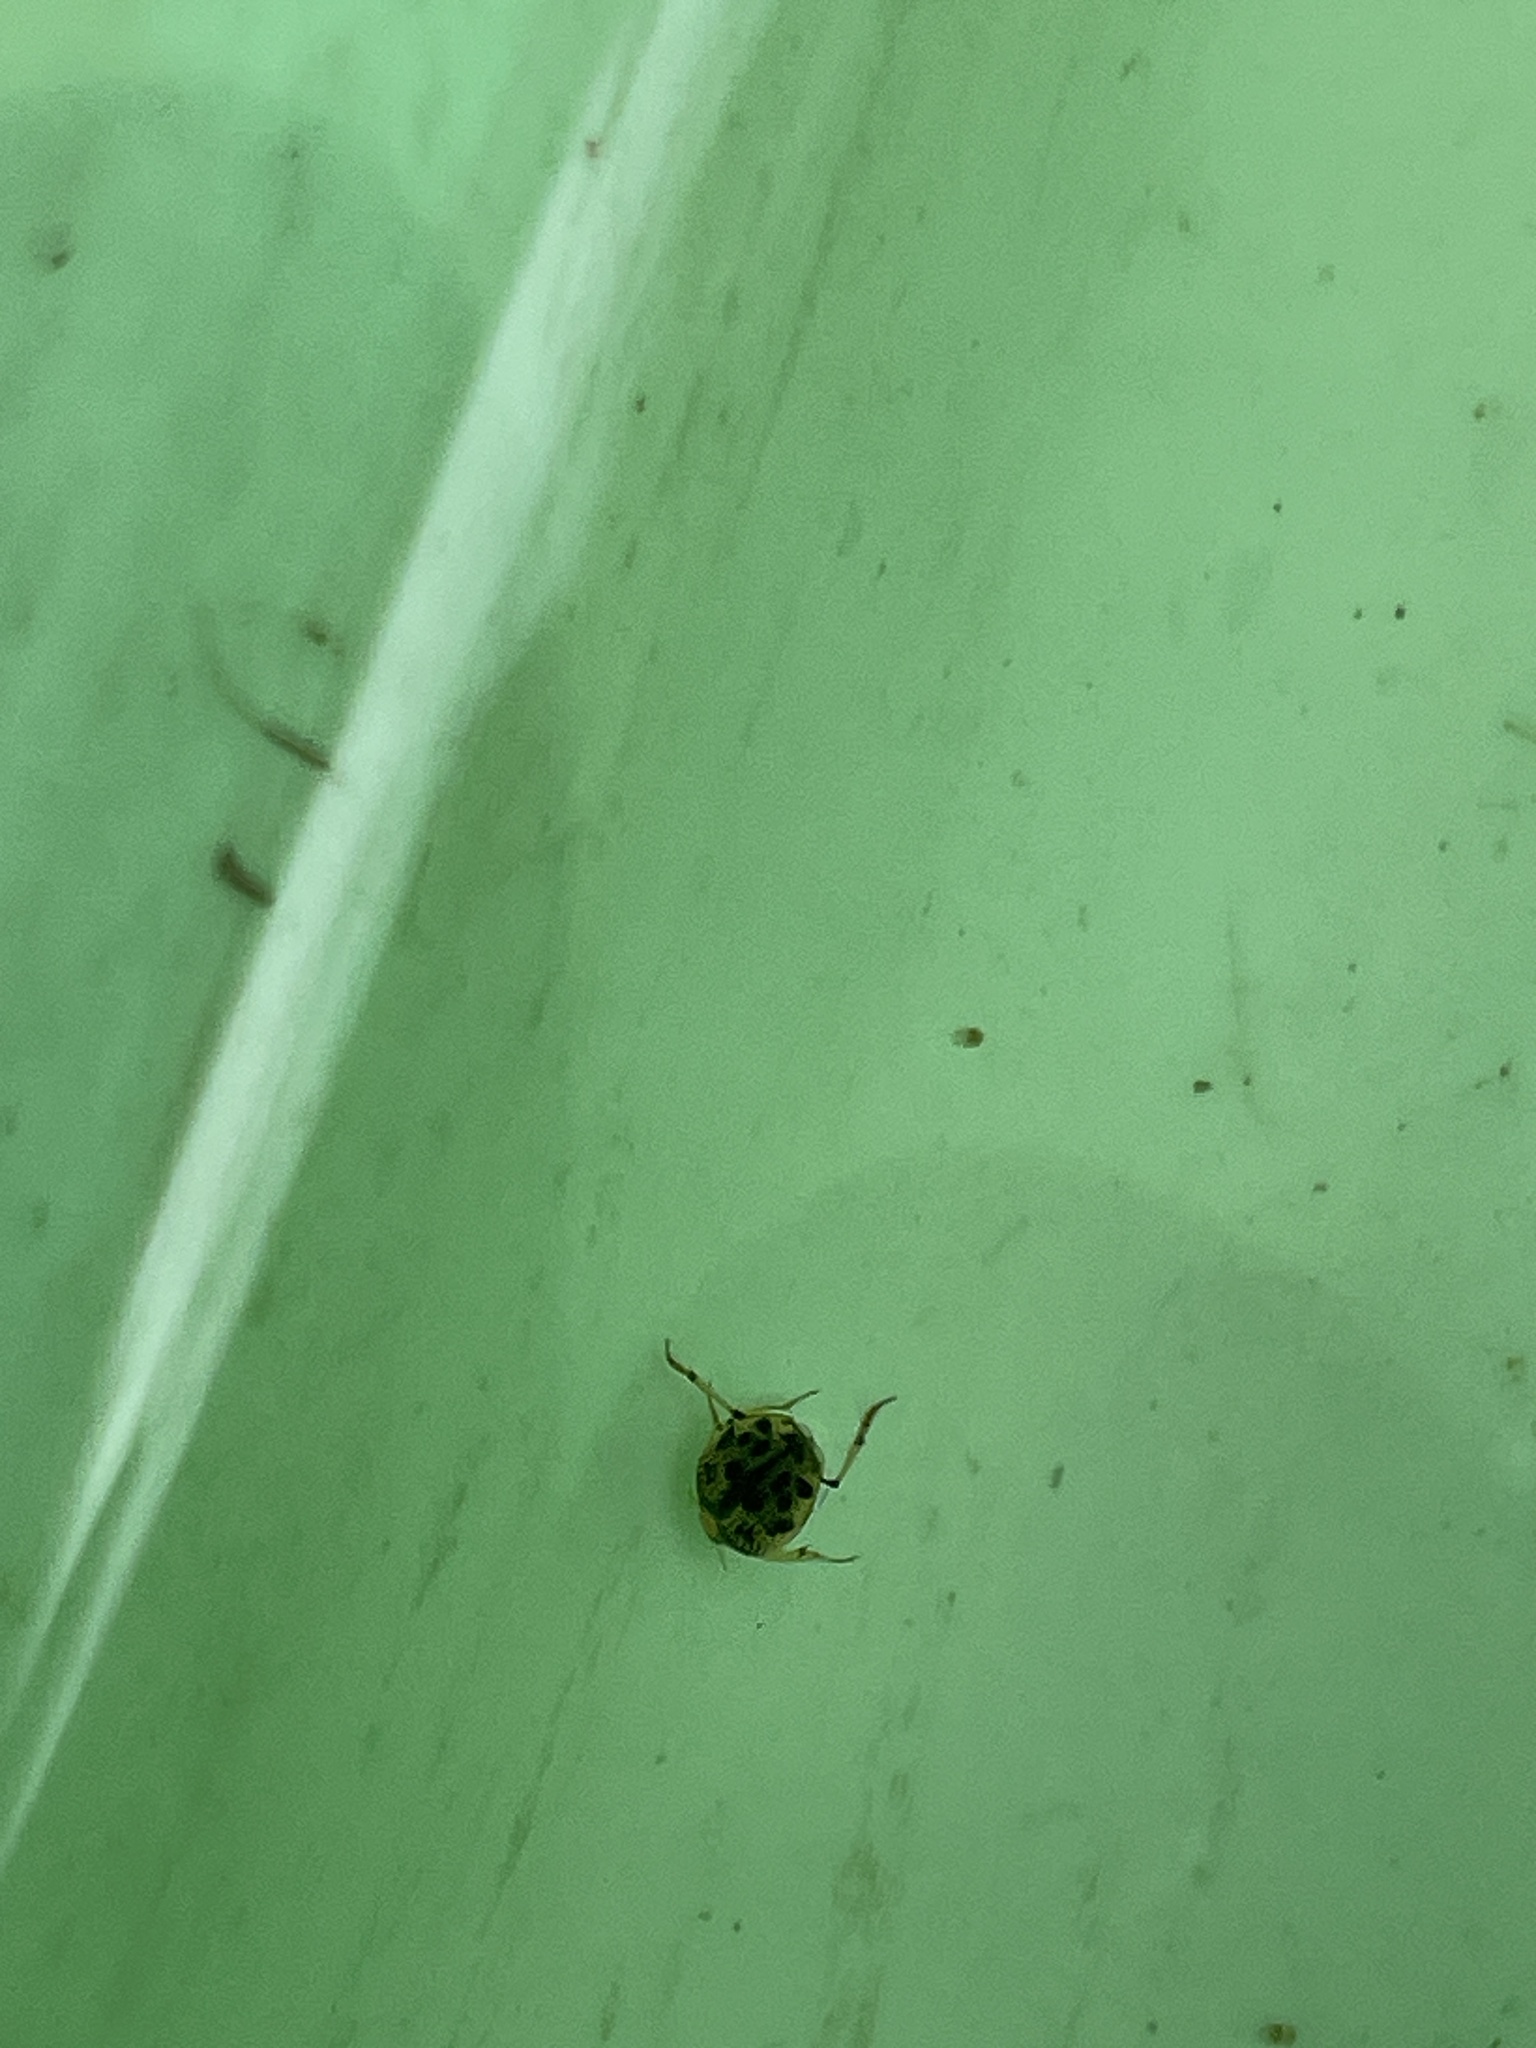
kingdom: Animalia
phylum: Arthropoda
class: Insecta
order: Coleoptera
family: Haliplidae
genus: Peltodytes
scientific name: Peltodytes
